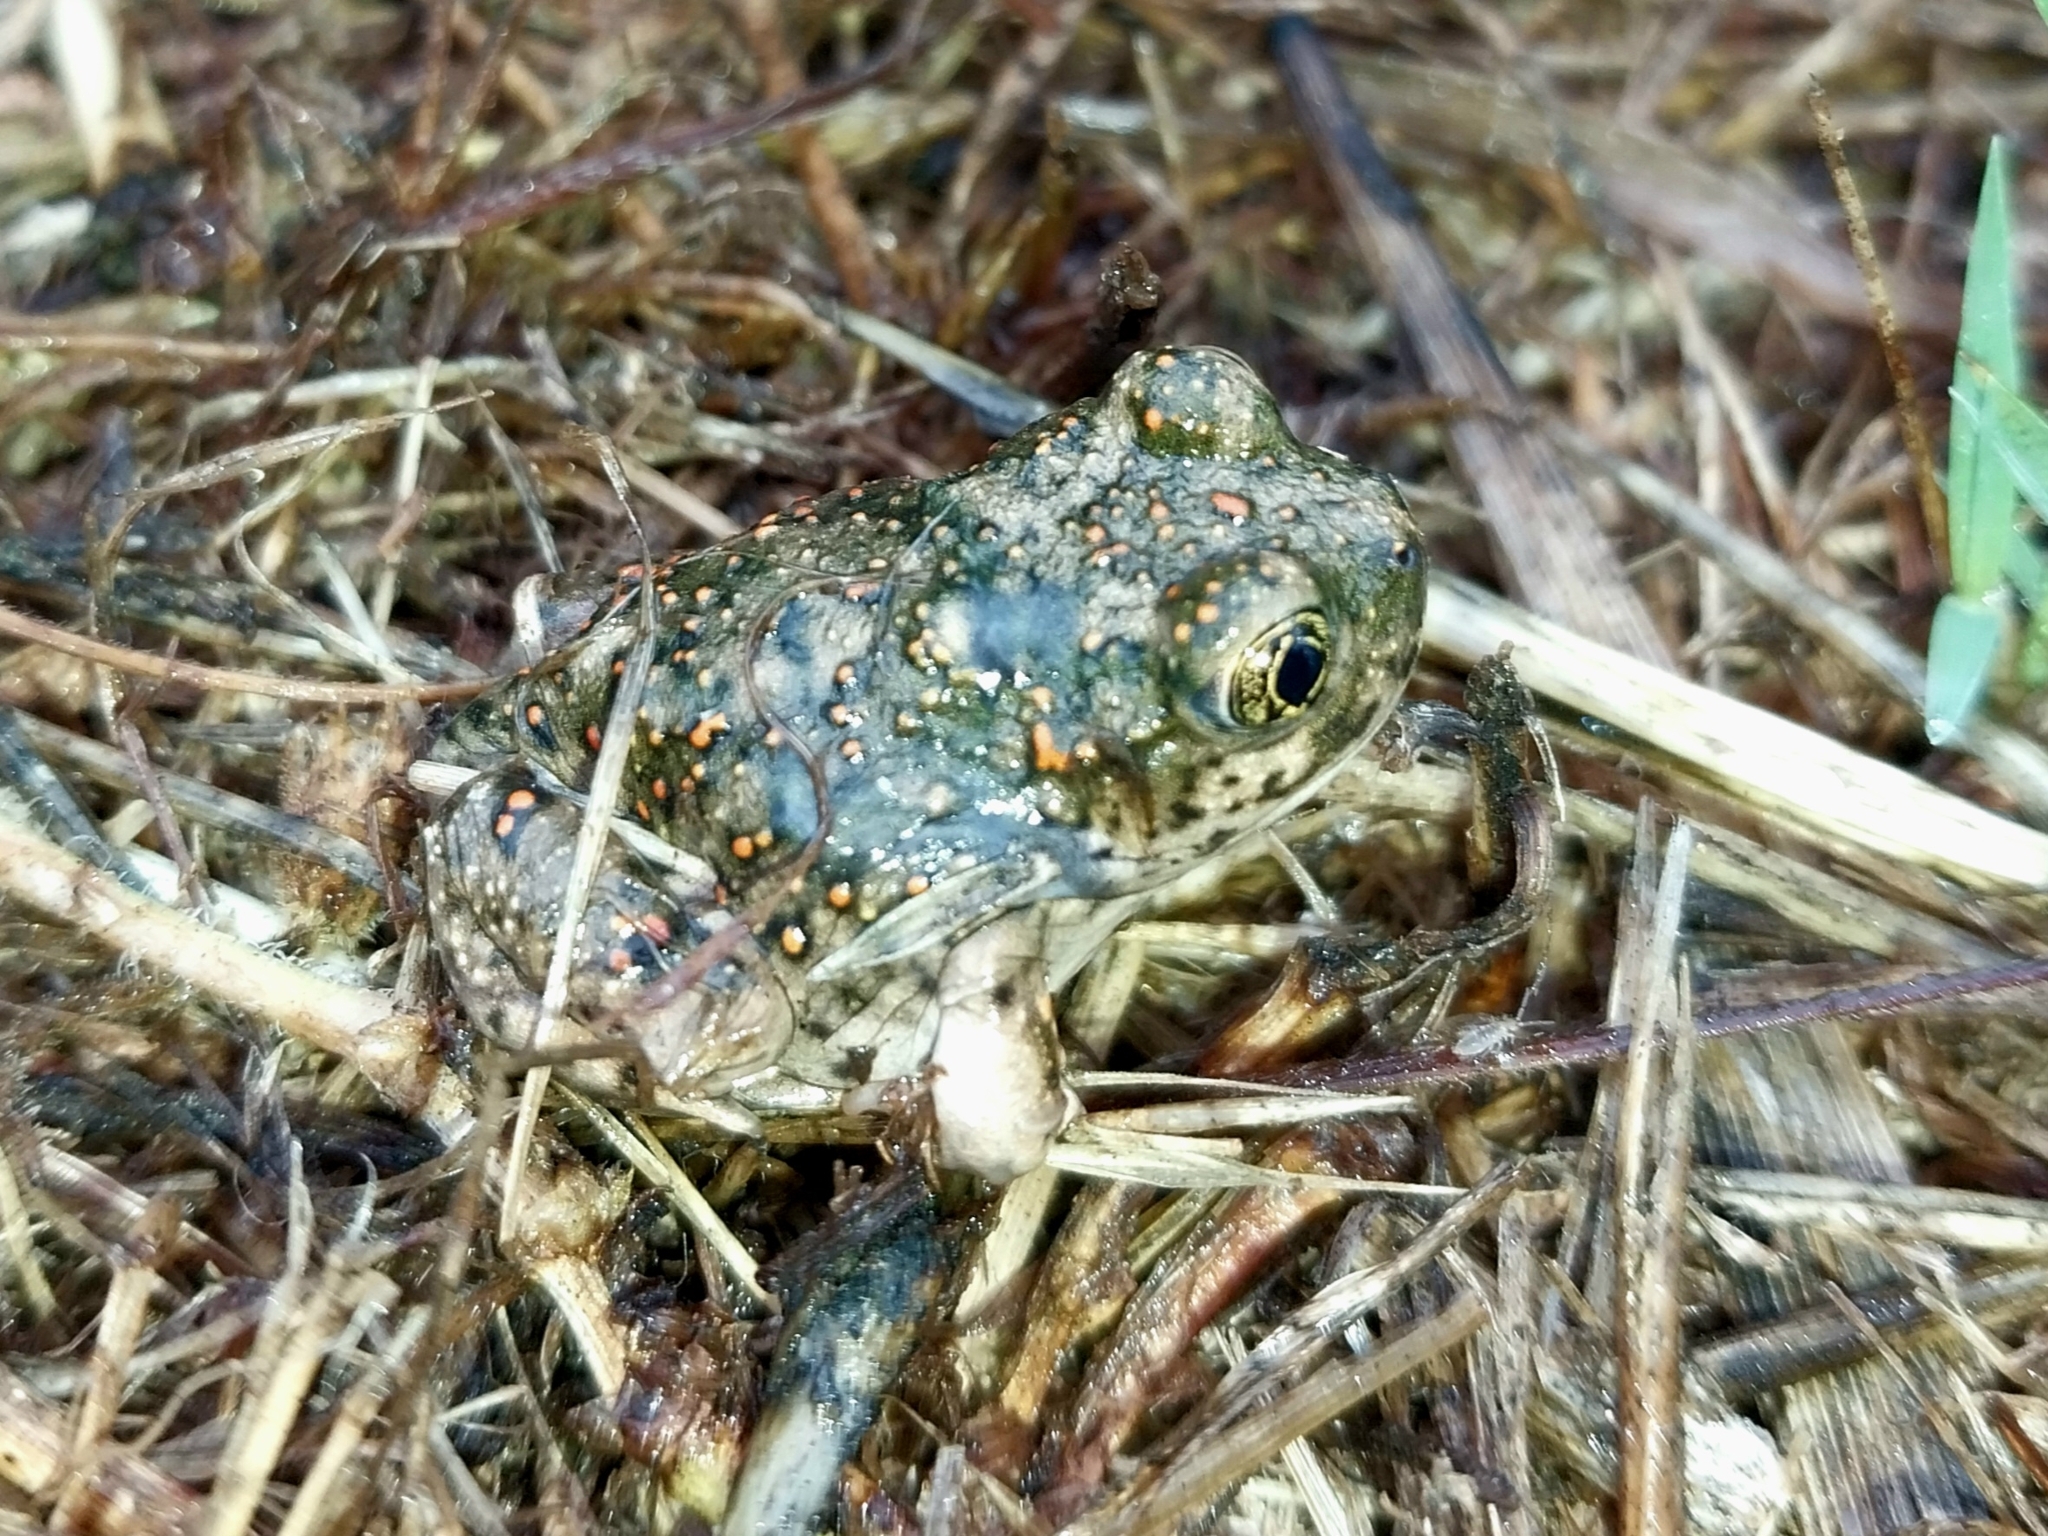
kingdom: Animalia
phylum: Chordata
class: Amphibia
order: Anura
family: Scaphiopodidae
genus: Spea
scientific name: Spea hammondii
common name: Western spadefoot toad
